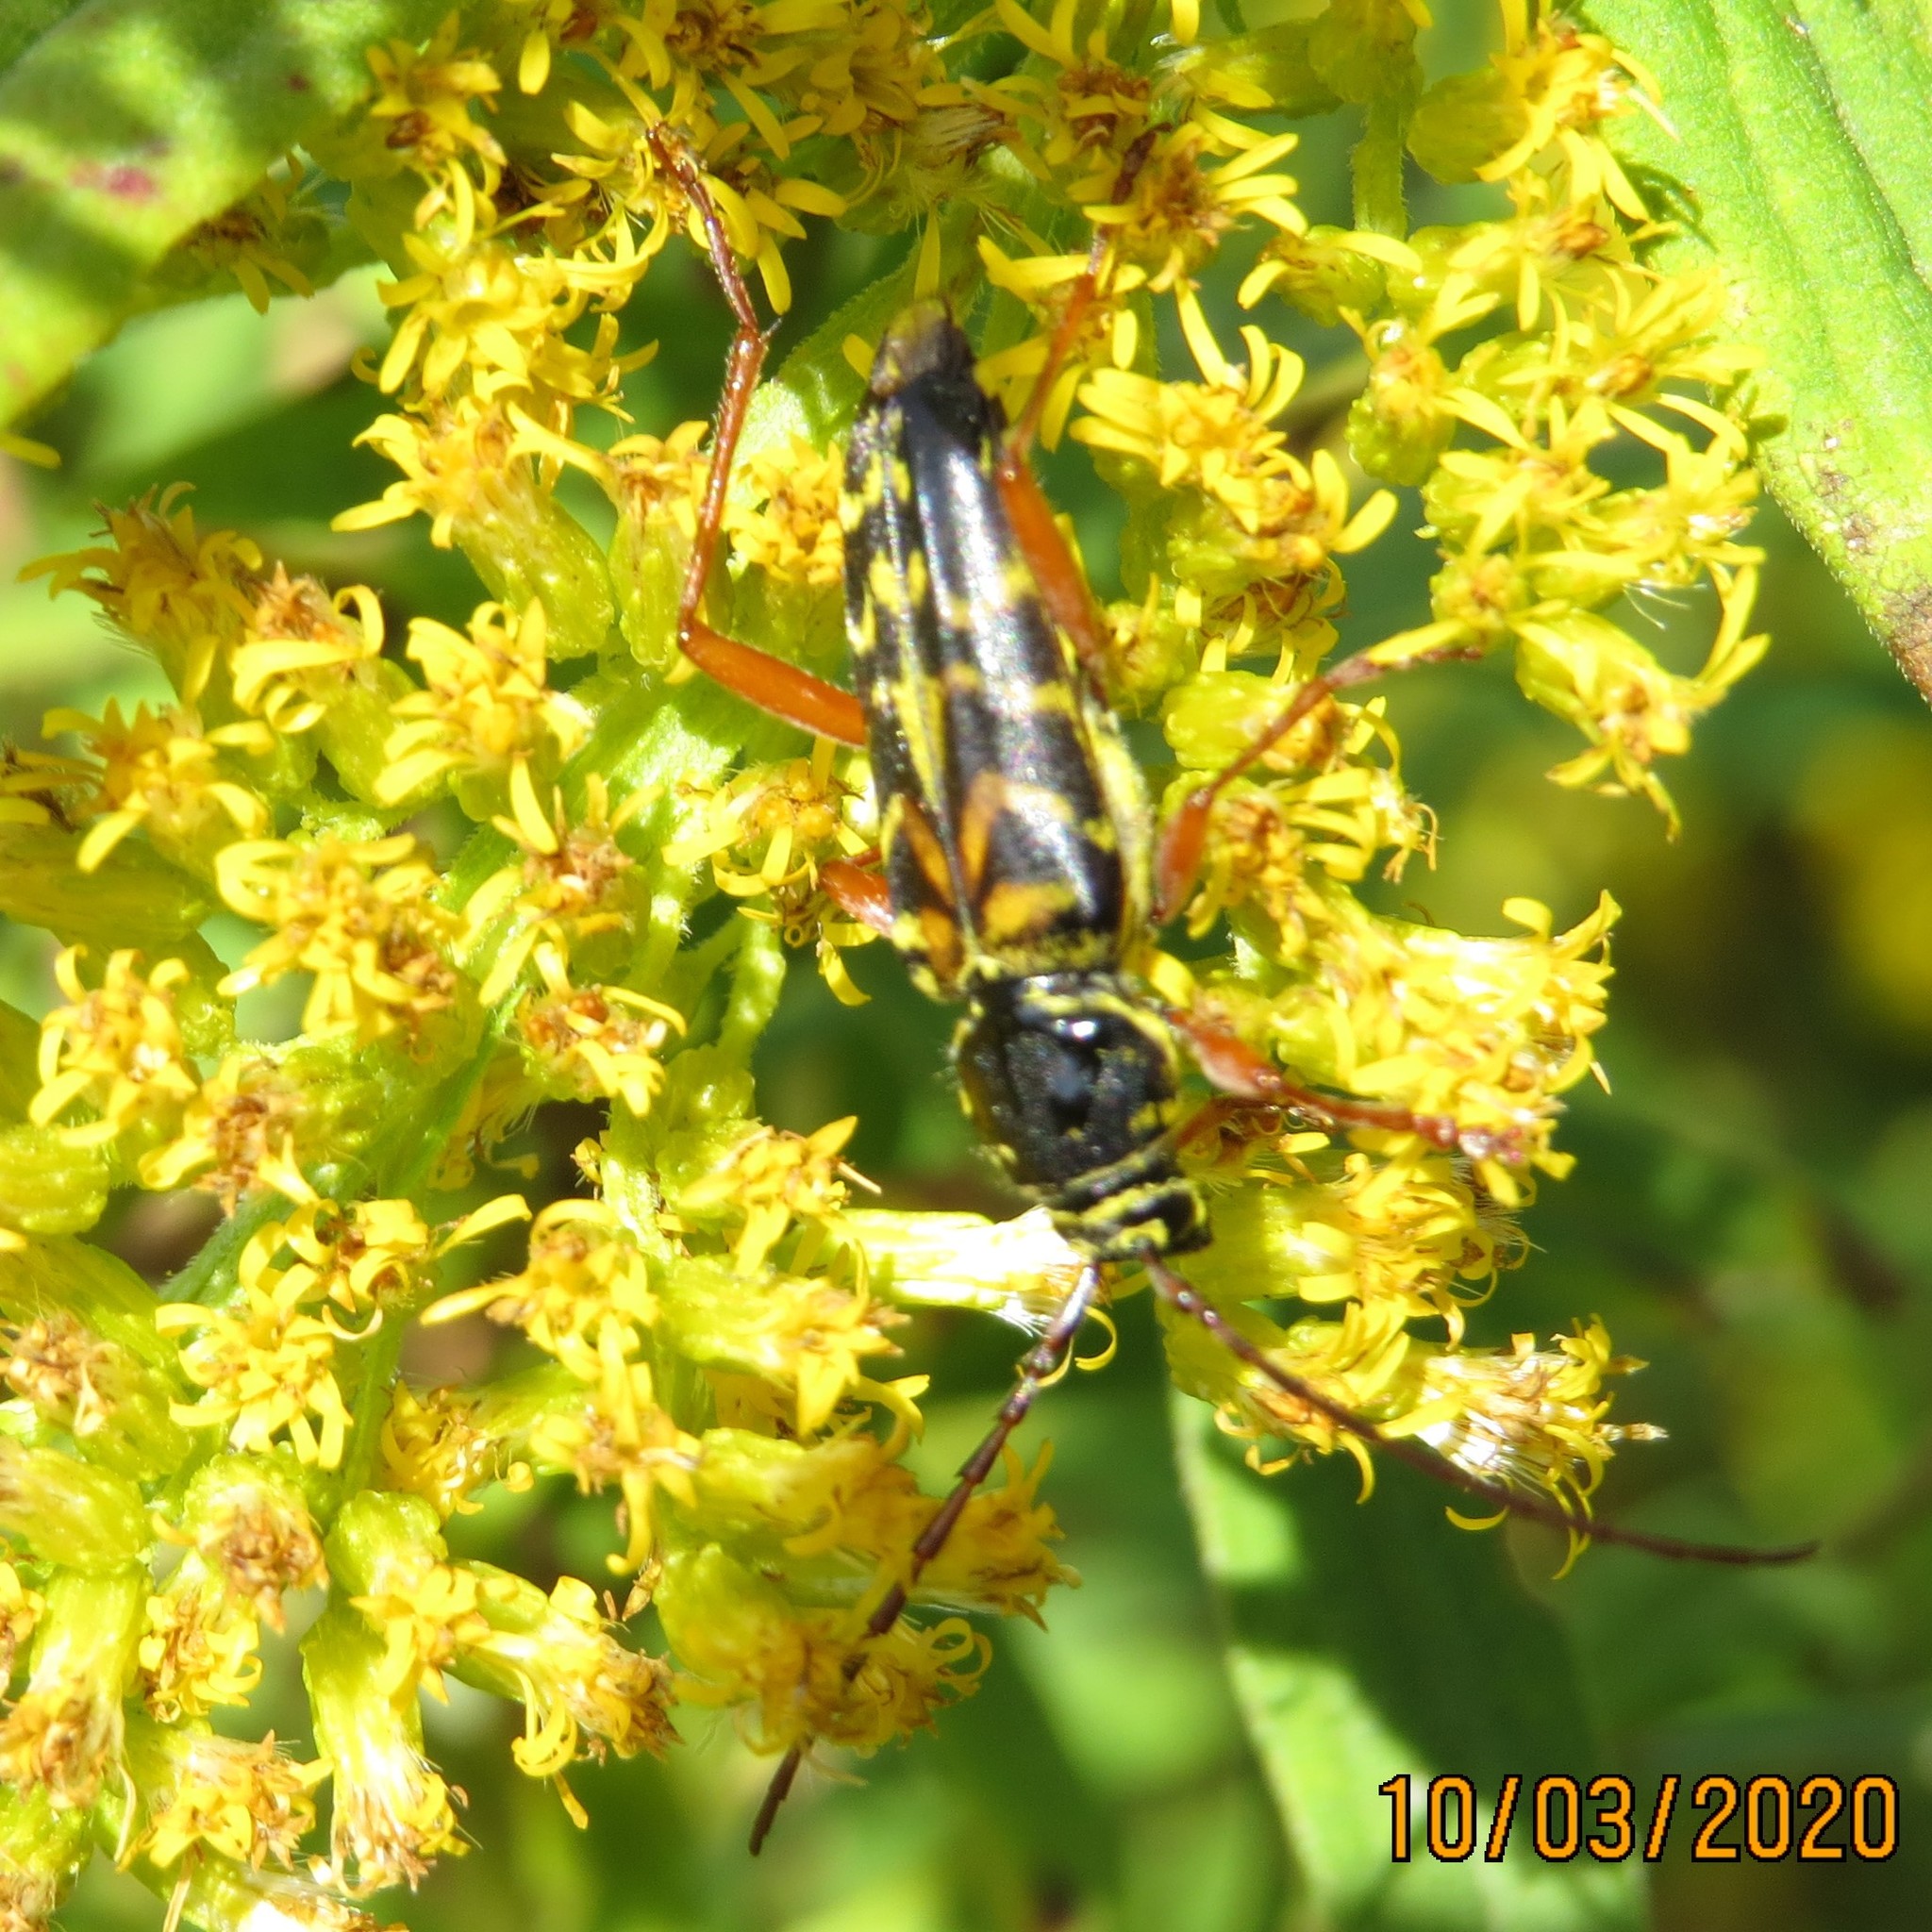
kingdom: Animalia
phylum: Arthropoda
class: Insecta
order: Coleoptera
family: Cerambycidae
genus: Megacyllene
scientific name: Megacyllene robiniae
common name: Locust borer
